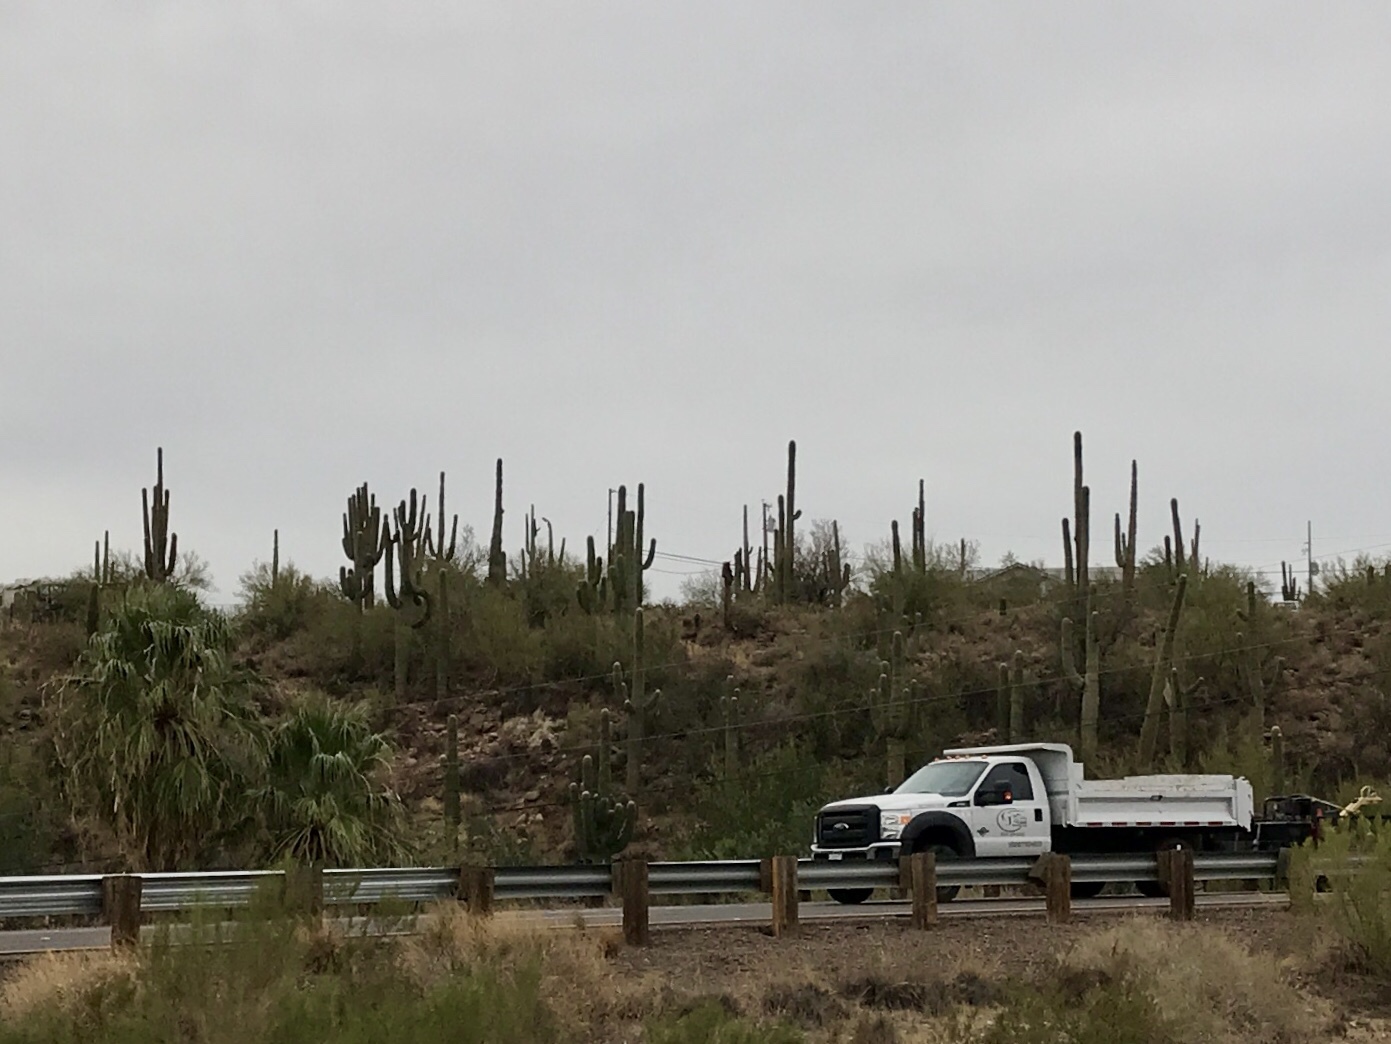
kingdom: Plantae
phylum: Tracheophyta
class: Magnoliopsida
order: Caryophyllales
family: Cactaceae
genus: Carnegiea
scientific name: Carnegiea gigantea
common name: Saguaro
